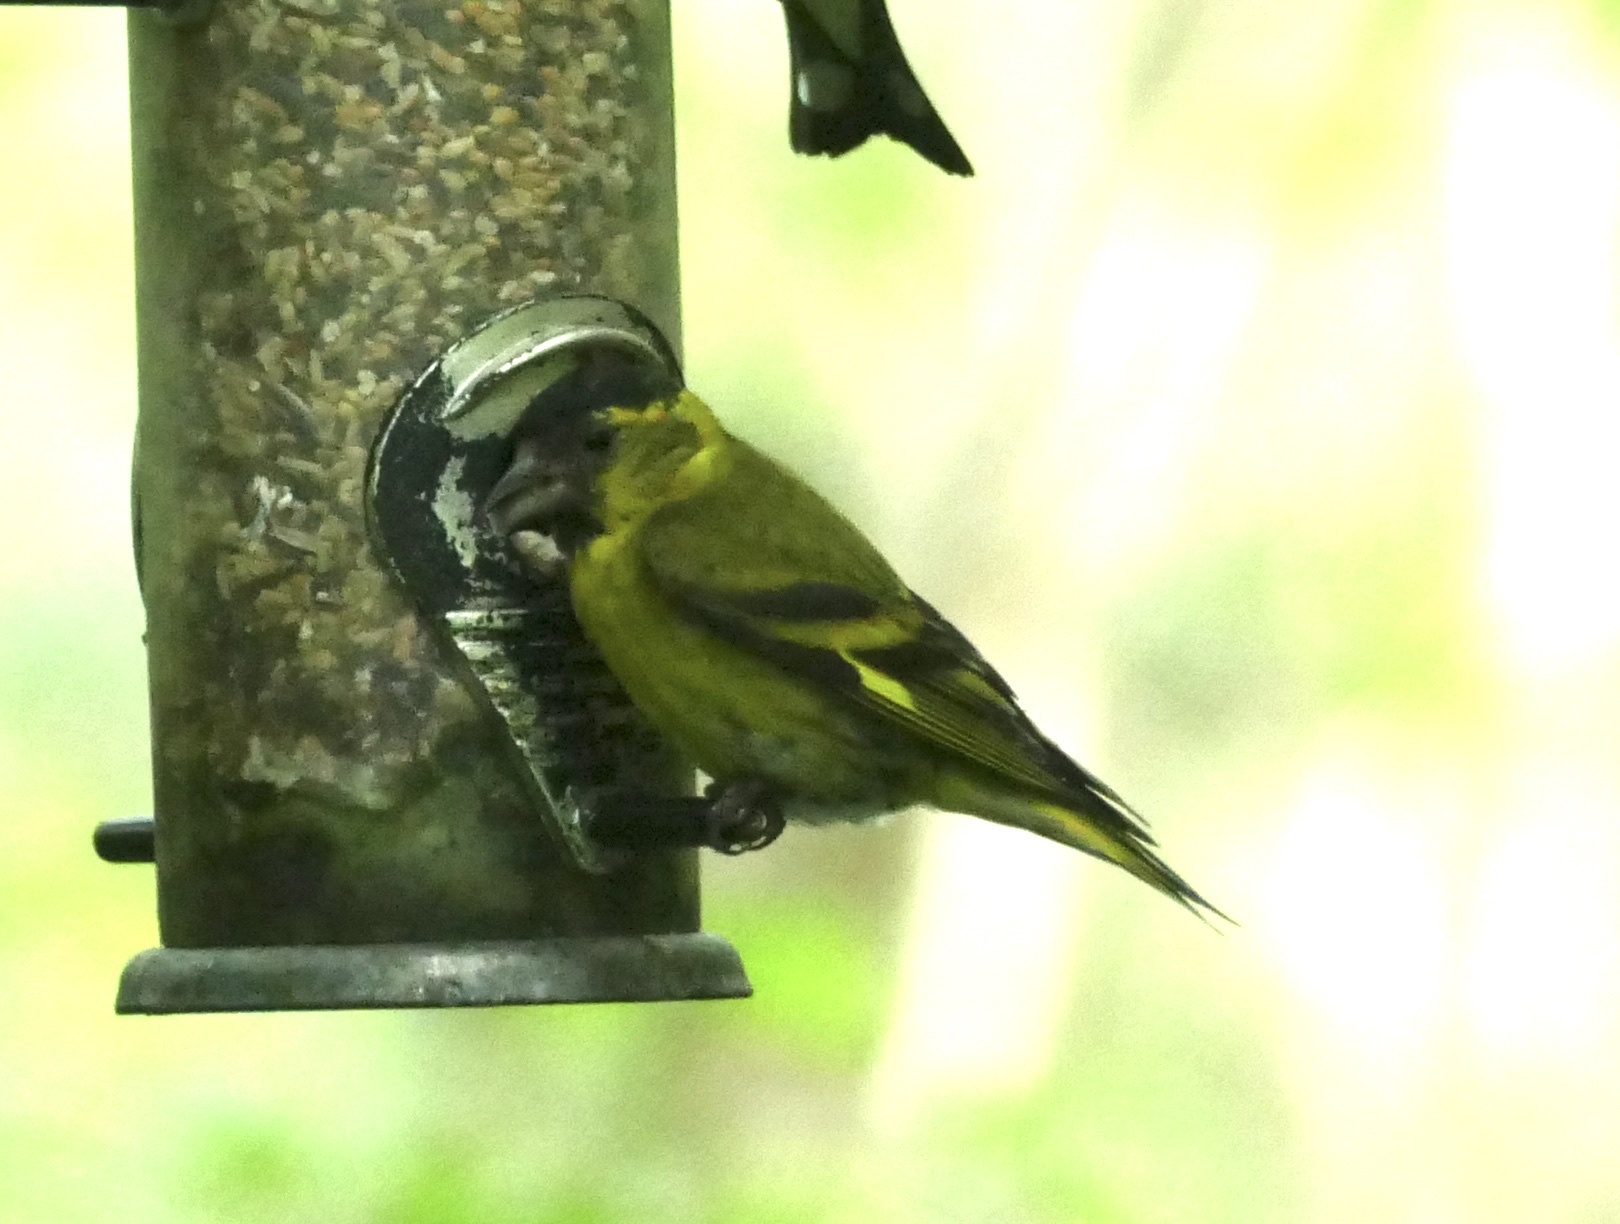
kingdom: Animalia
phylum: Chordata
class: Aves
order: Passeriformes
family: Fringillidae
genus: Spinus
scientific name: Spinus spinus
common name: Eurasian siskin
